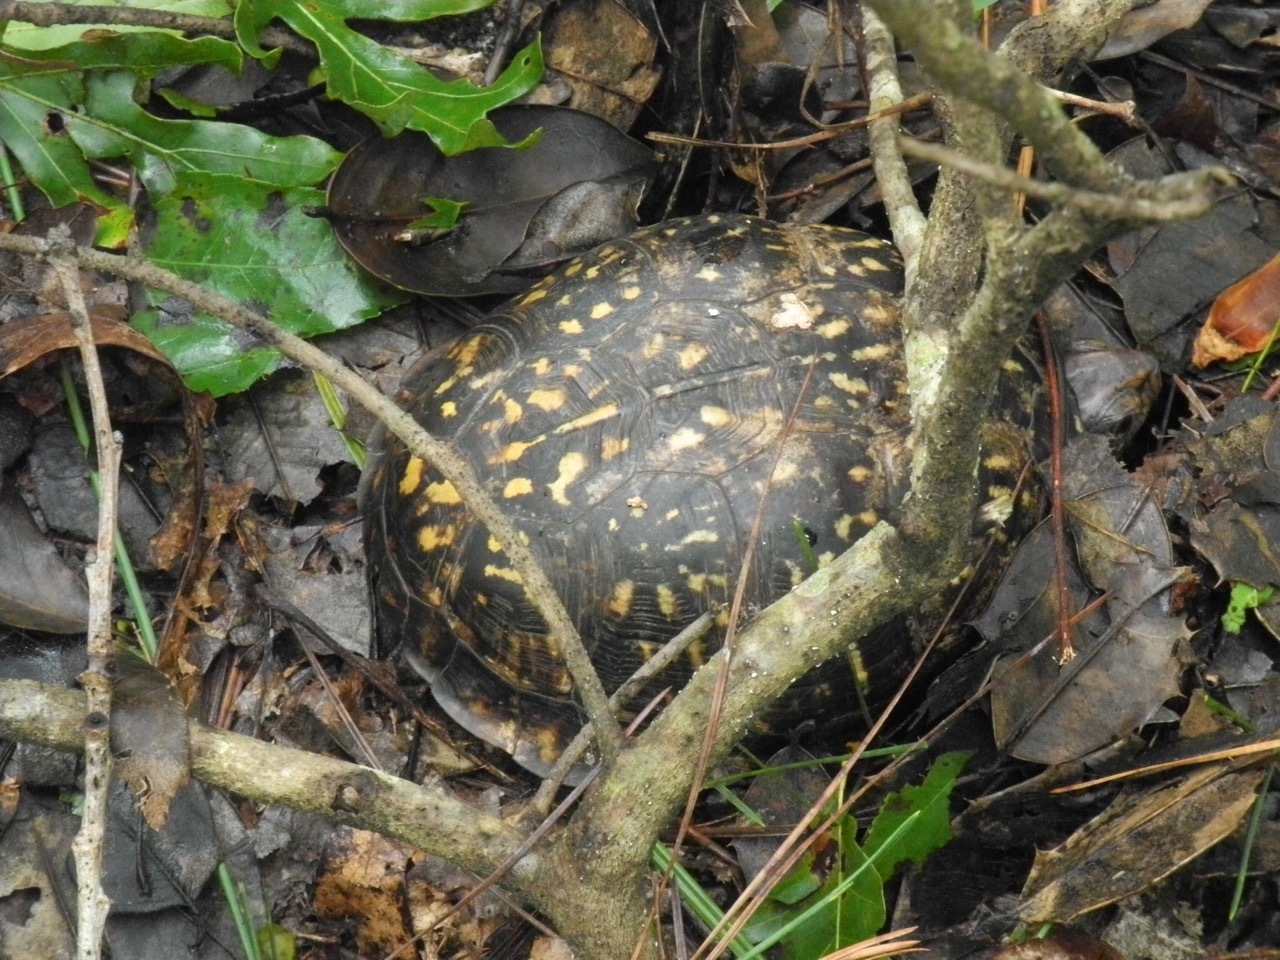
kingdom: Animalia
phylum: Chordata
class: Testudines
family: Emydidae
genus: Terrapene
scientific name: Terrapene carolina
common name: Common box turtle
